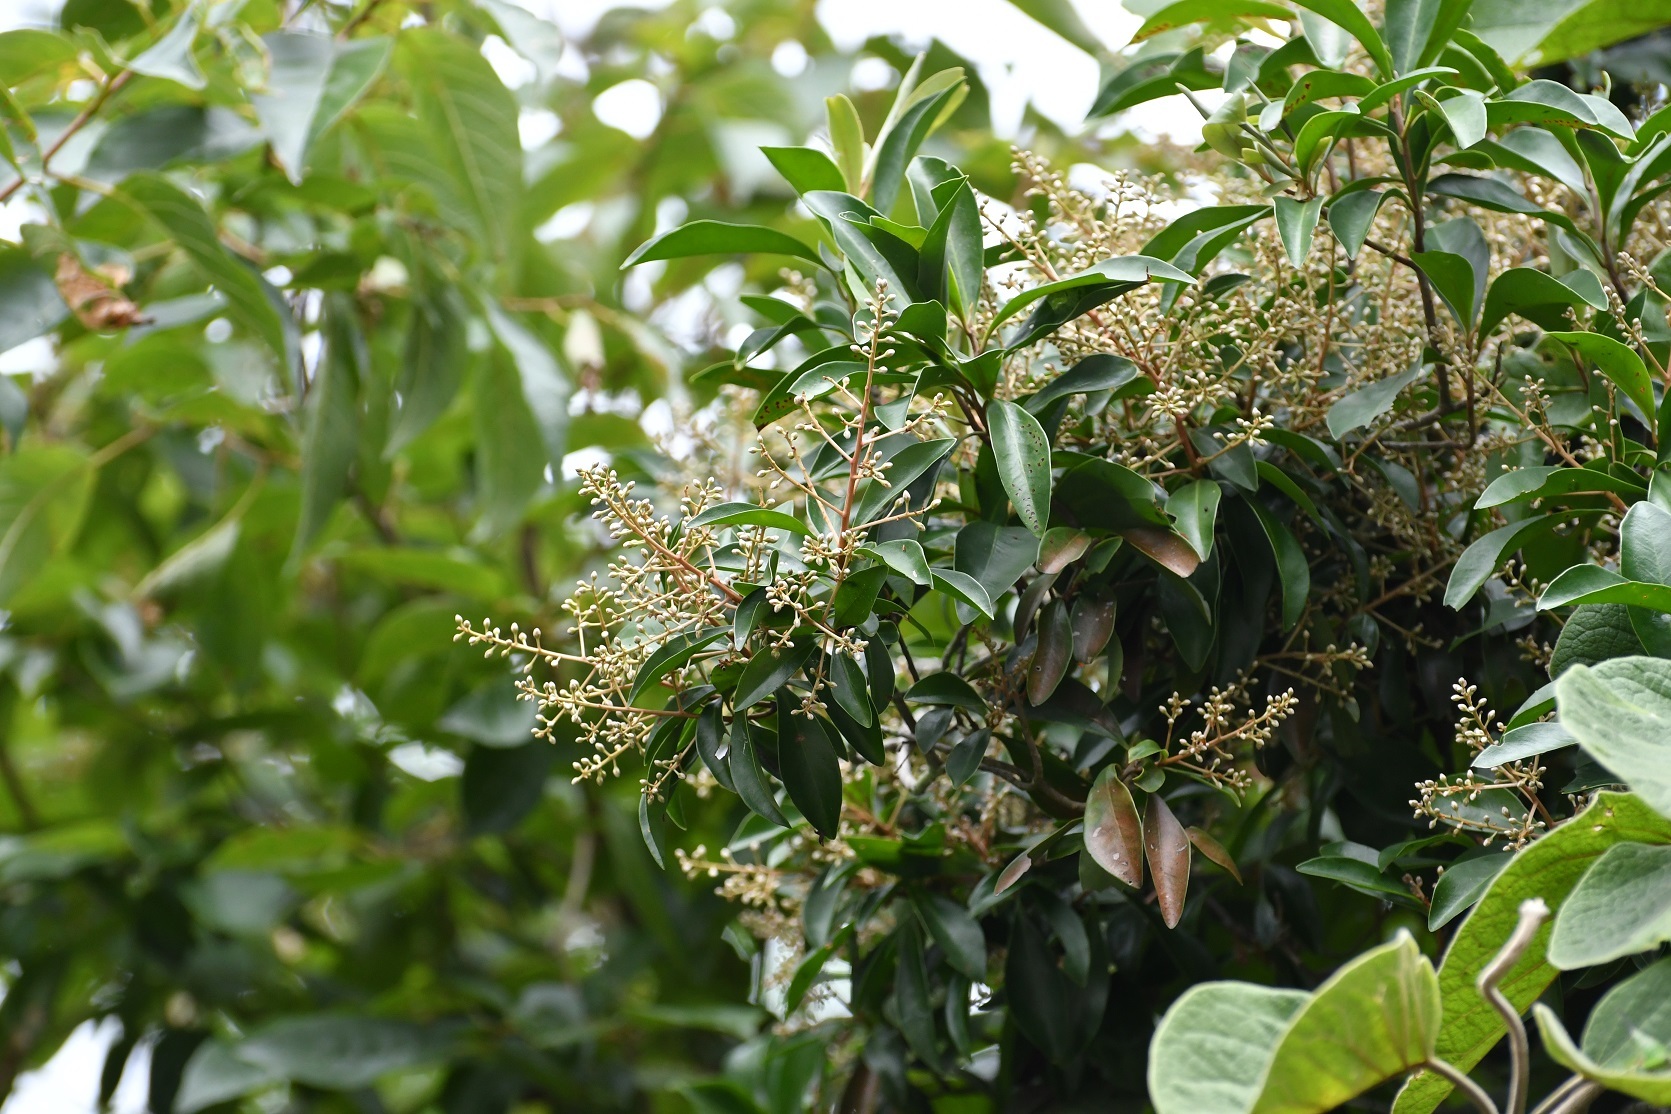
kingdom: Plantae
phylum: Tracheophyta
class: Magnoliopsida
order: Ericales
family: Primulaceae
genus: Ardisia
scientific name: Ardisia escallonioides
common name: Island marlberry
